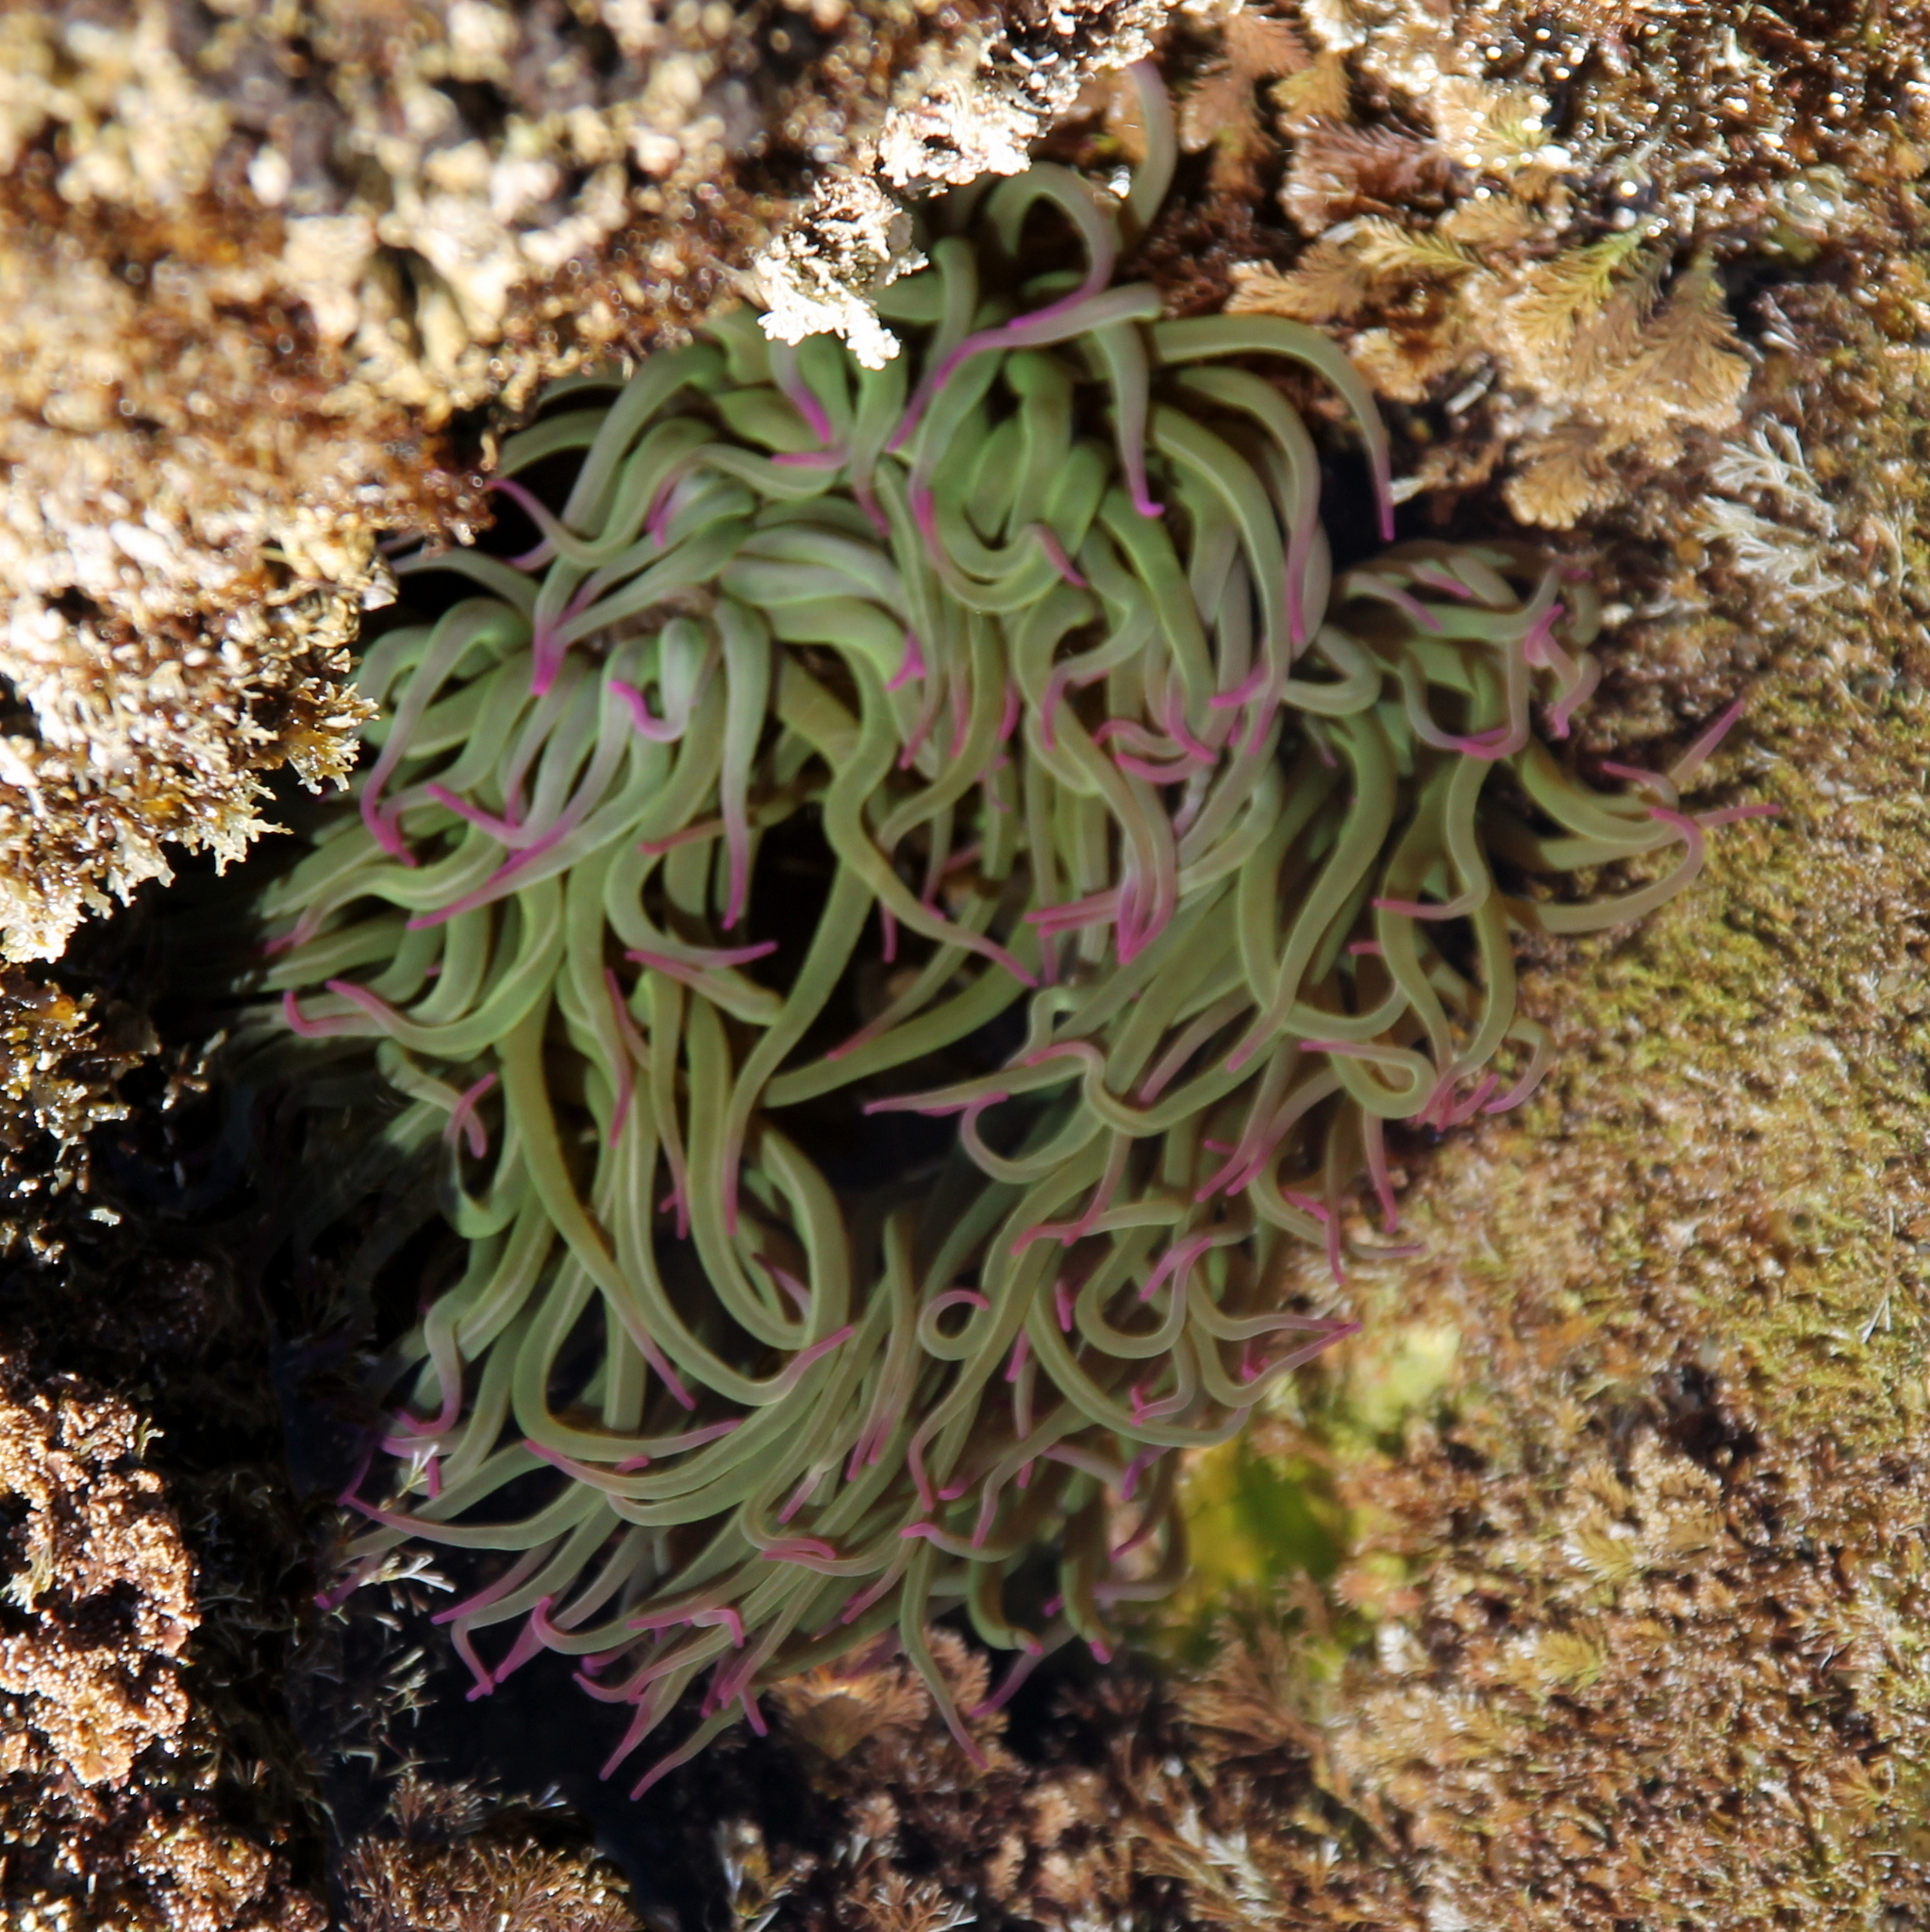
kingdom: Animalia
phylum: Cnidaria
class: Anthozoa
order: Actiniaria
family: Actiniidae
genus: Anemonia
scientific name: Anemonia viridis
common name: Snakelocks anemone
